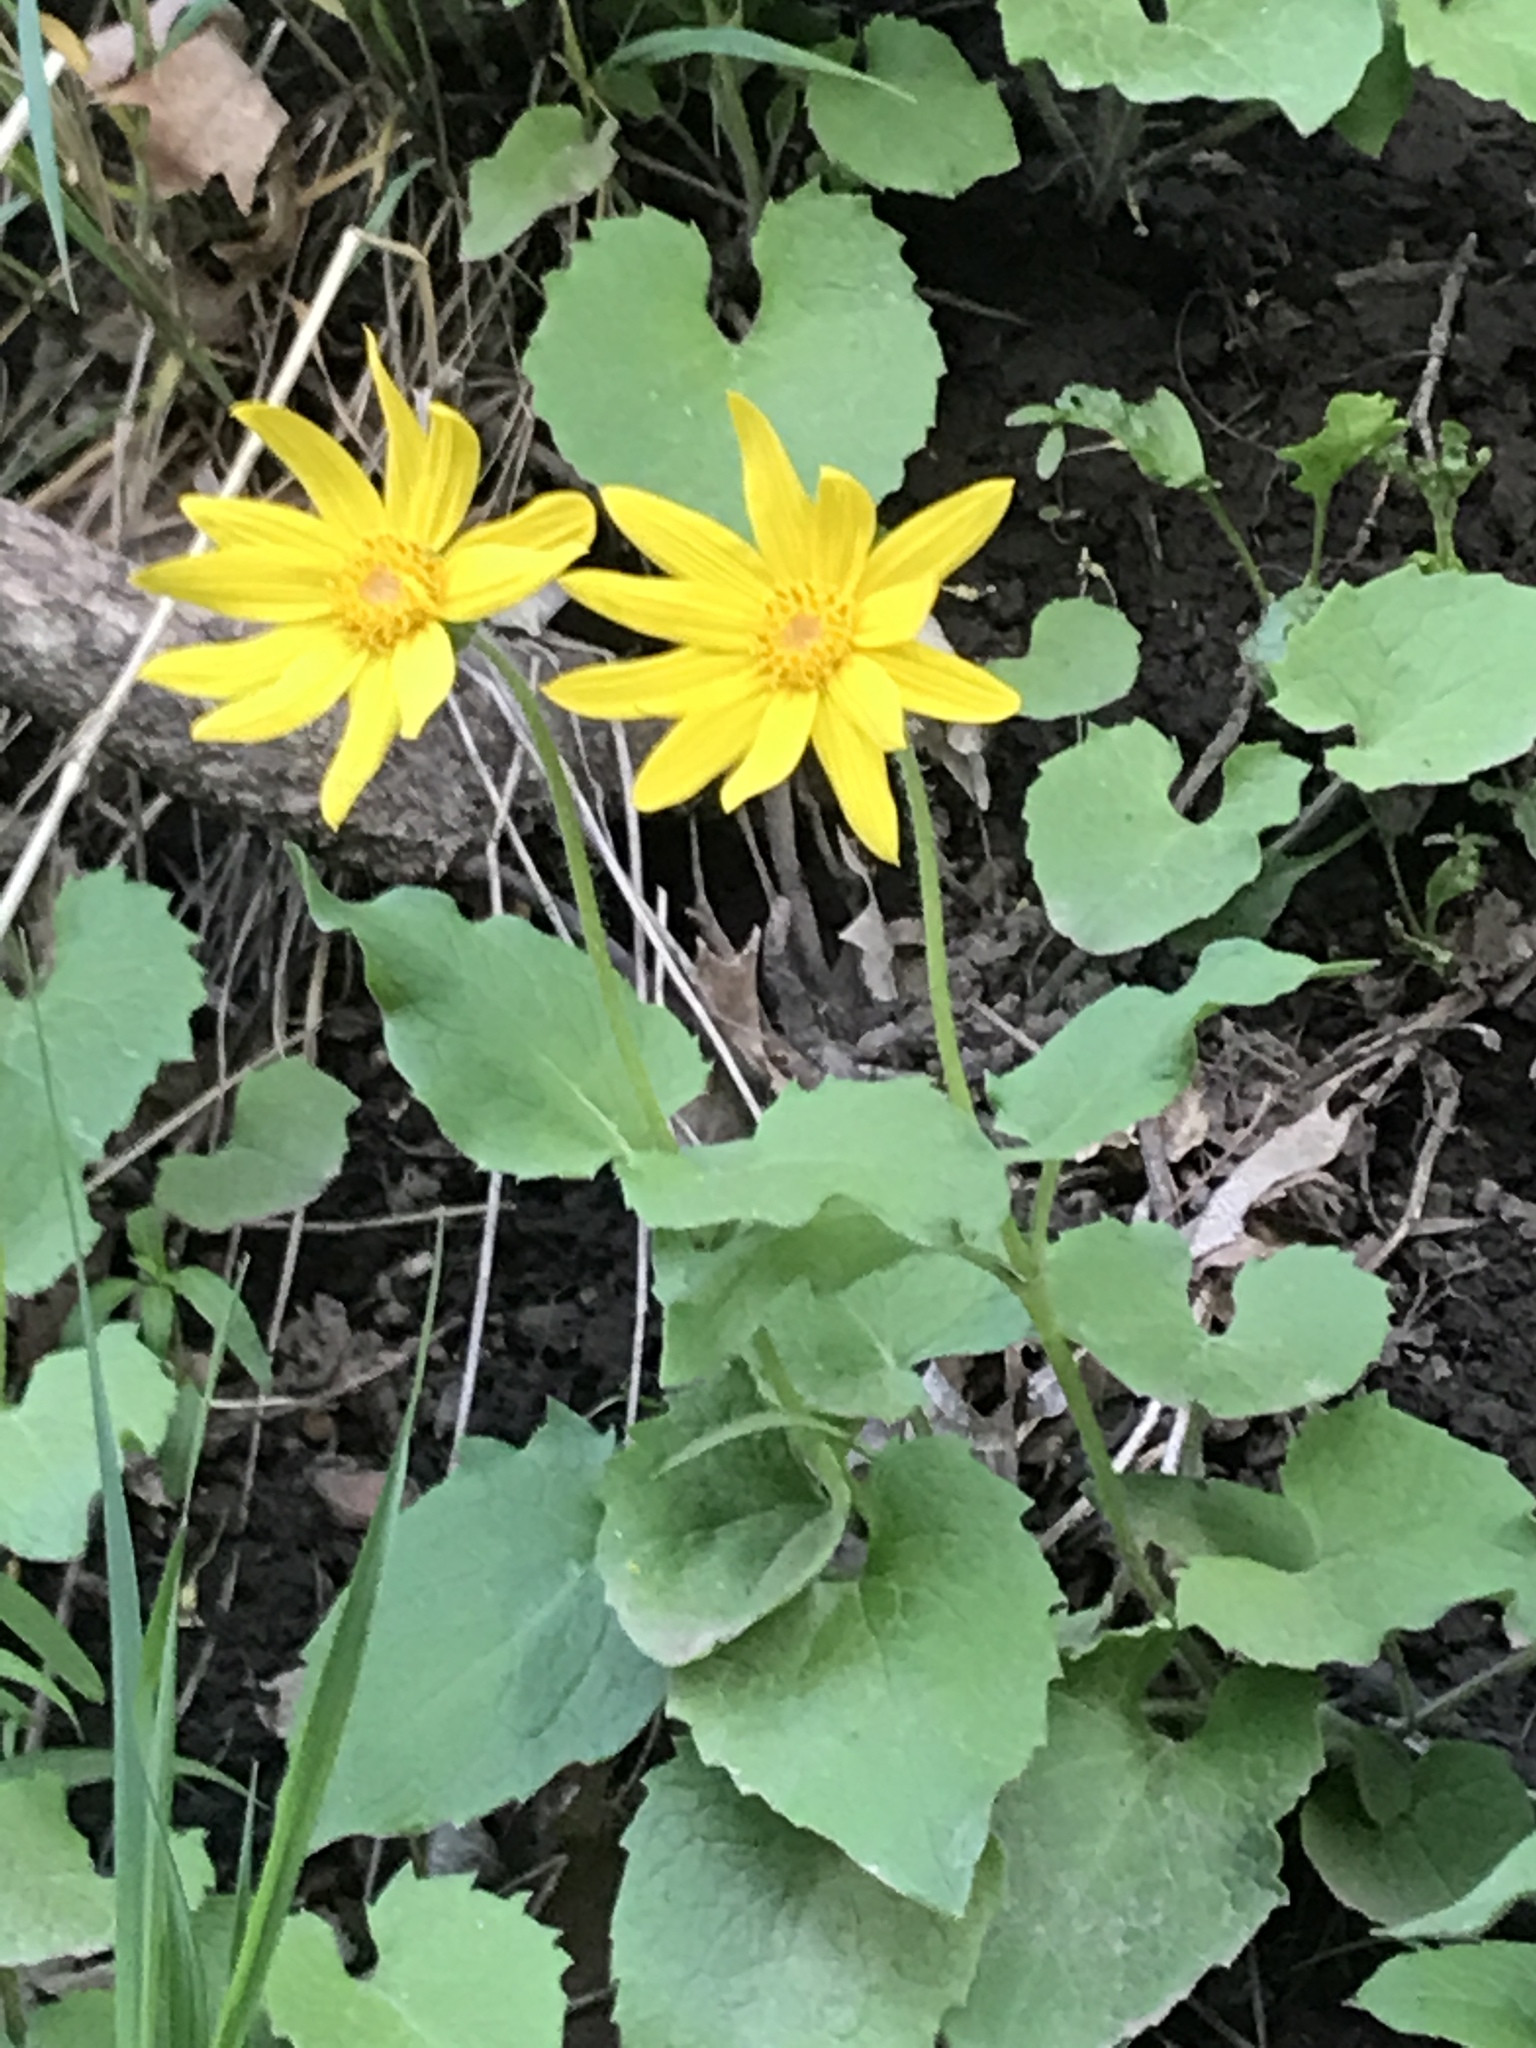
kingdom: Plantae
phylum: Tracheophyta
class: Magnoliopsida
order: Asterales
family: Asteraceae
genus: Arnica
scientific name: Arnica cordifolia
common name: Heart-leaf arnica
